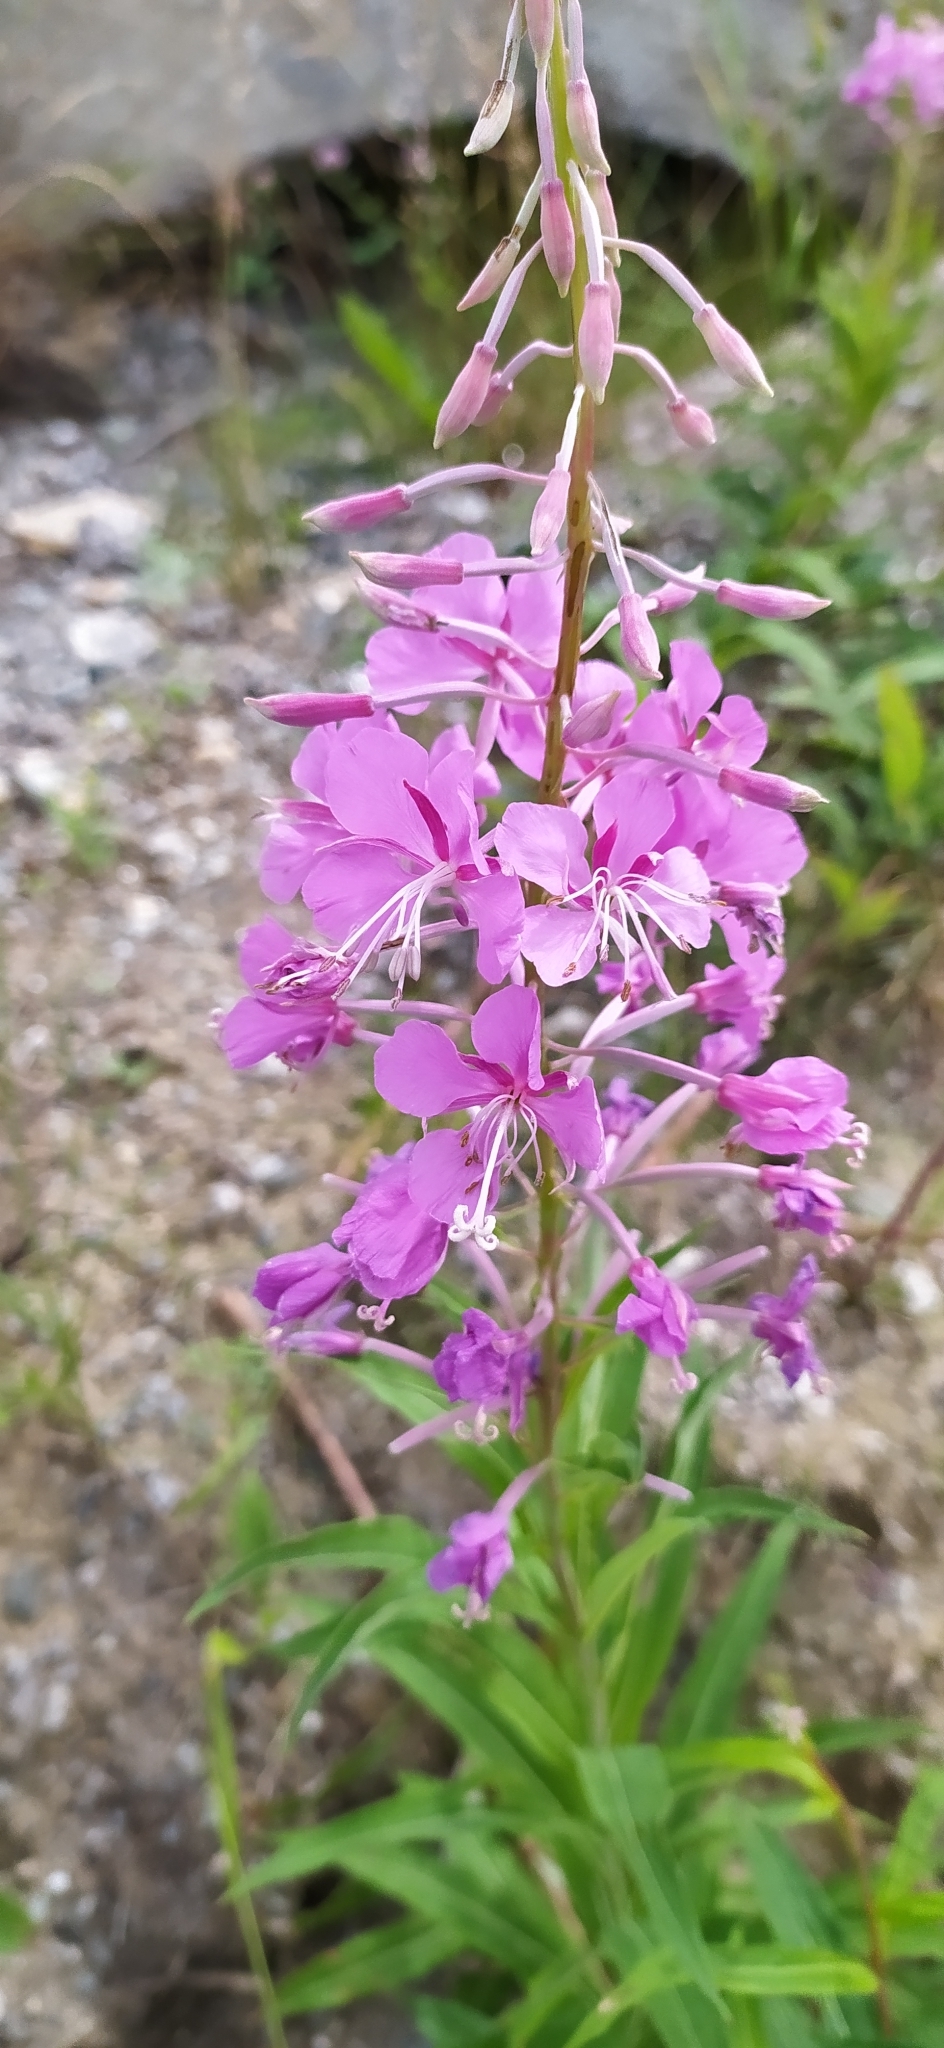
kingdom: Plantae
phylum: Tracheophyta
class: Magnoliopsida
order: Myrtales
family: Onagraceae
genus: Chamaenerion
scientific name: Chamaenerion angustifolium
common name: Fireweed
